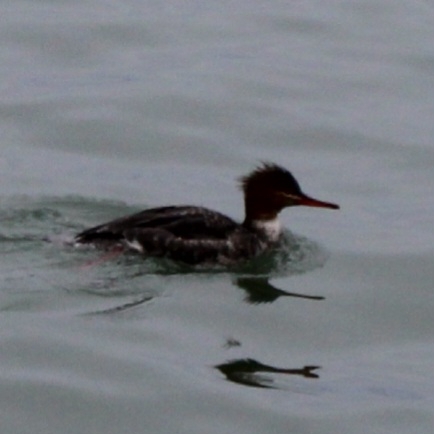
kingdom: Animalia
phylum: Chordata
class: Aves
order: Anseriformes
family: Anatidae
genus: Mergus
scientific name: Mergus serrator
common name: Red-breasted merganser
